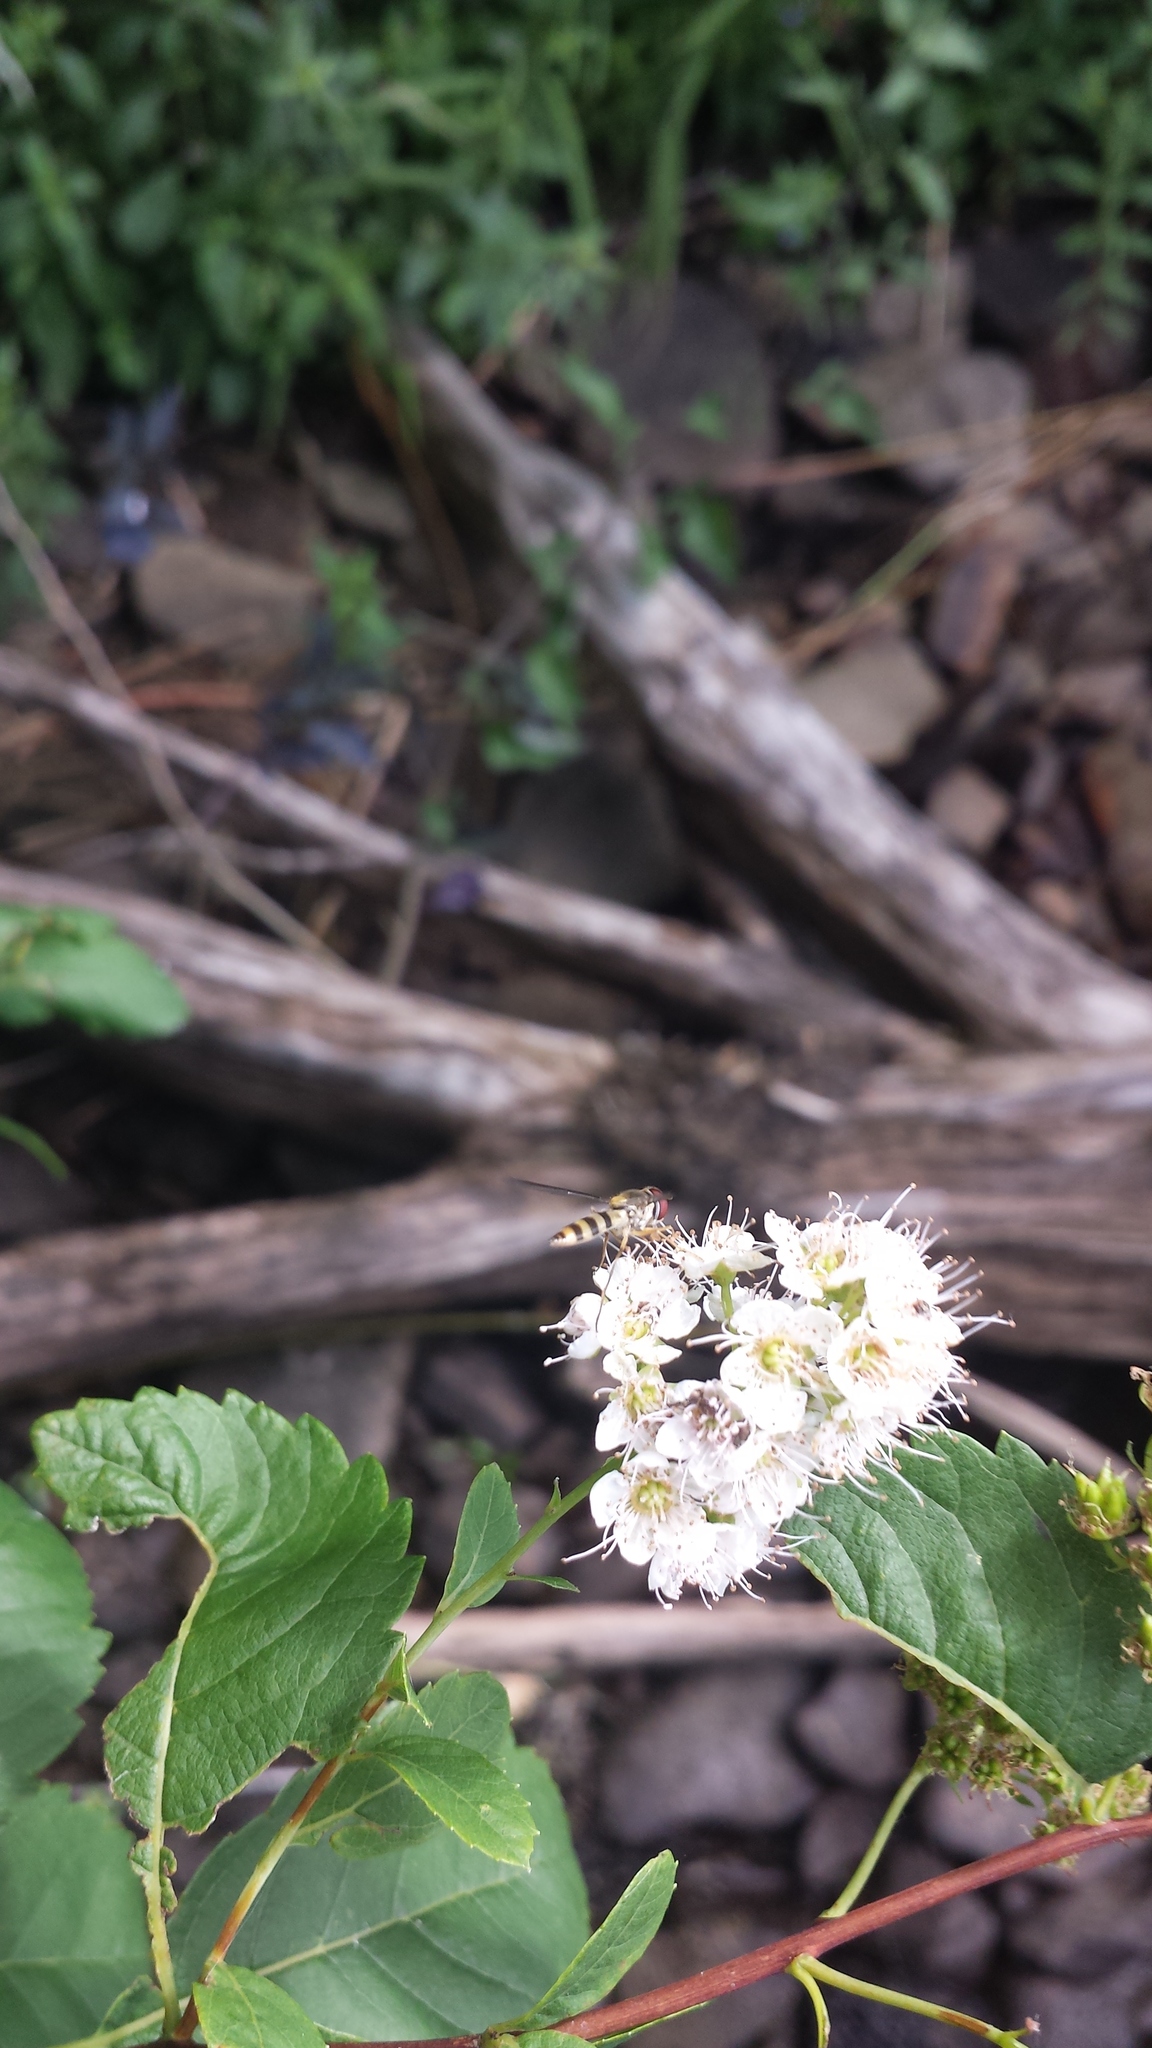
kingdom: Animalia
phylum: Arthropoda
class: Insecta
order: Diptera
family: Syrphidae
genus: Meliscaeva
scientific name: Meliscaeva cinctella
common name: American thintail fly
